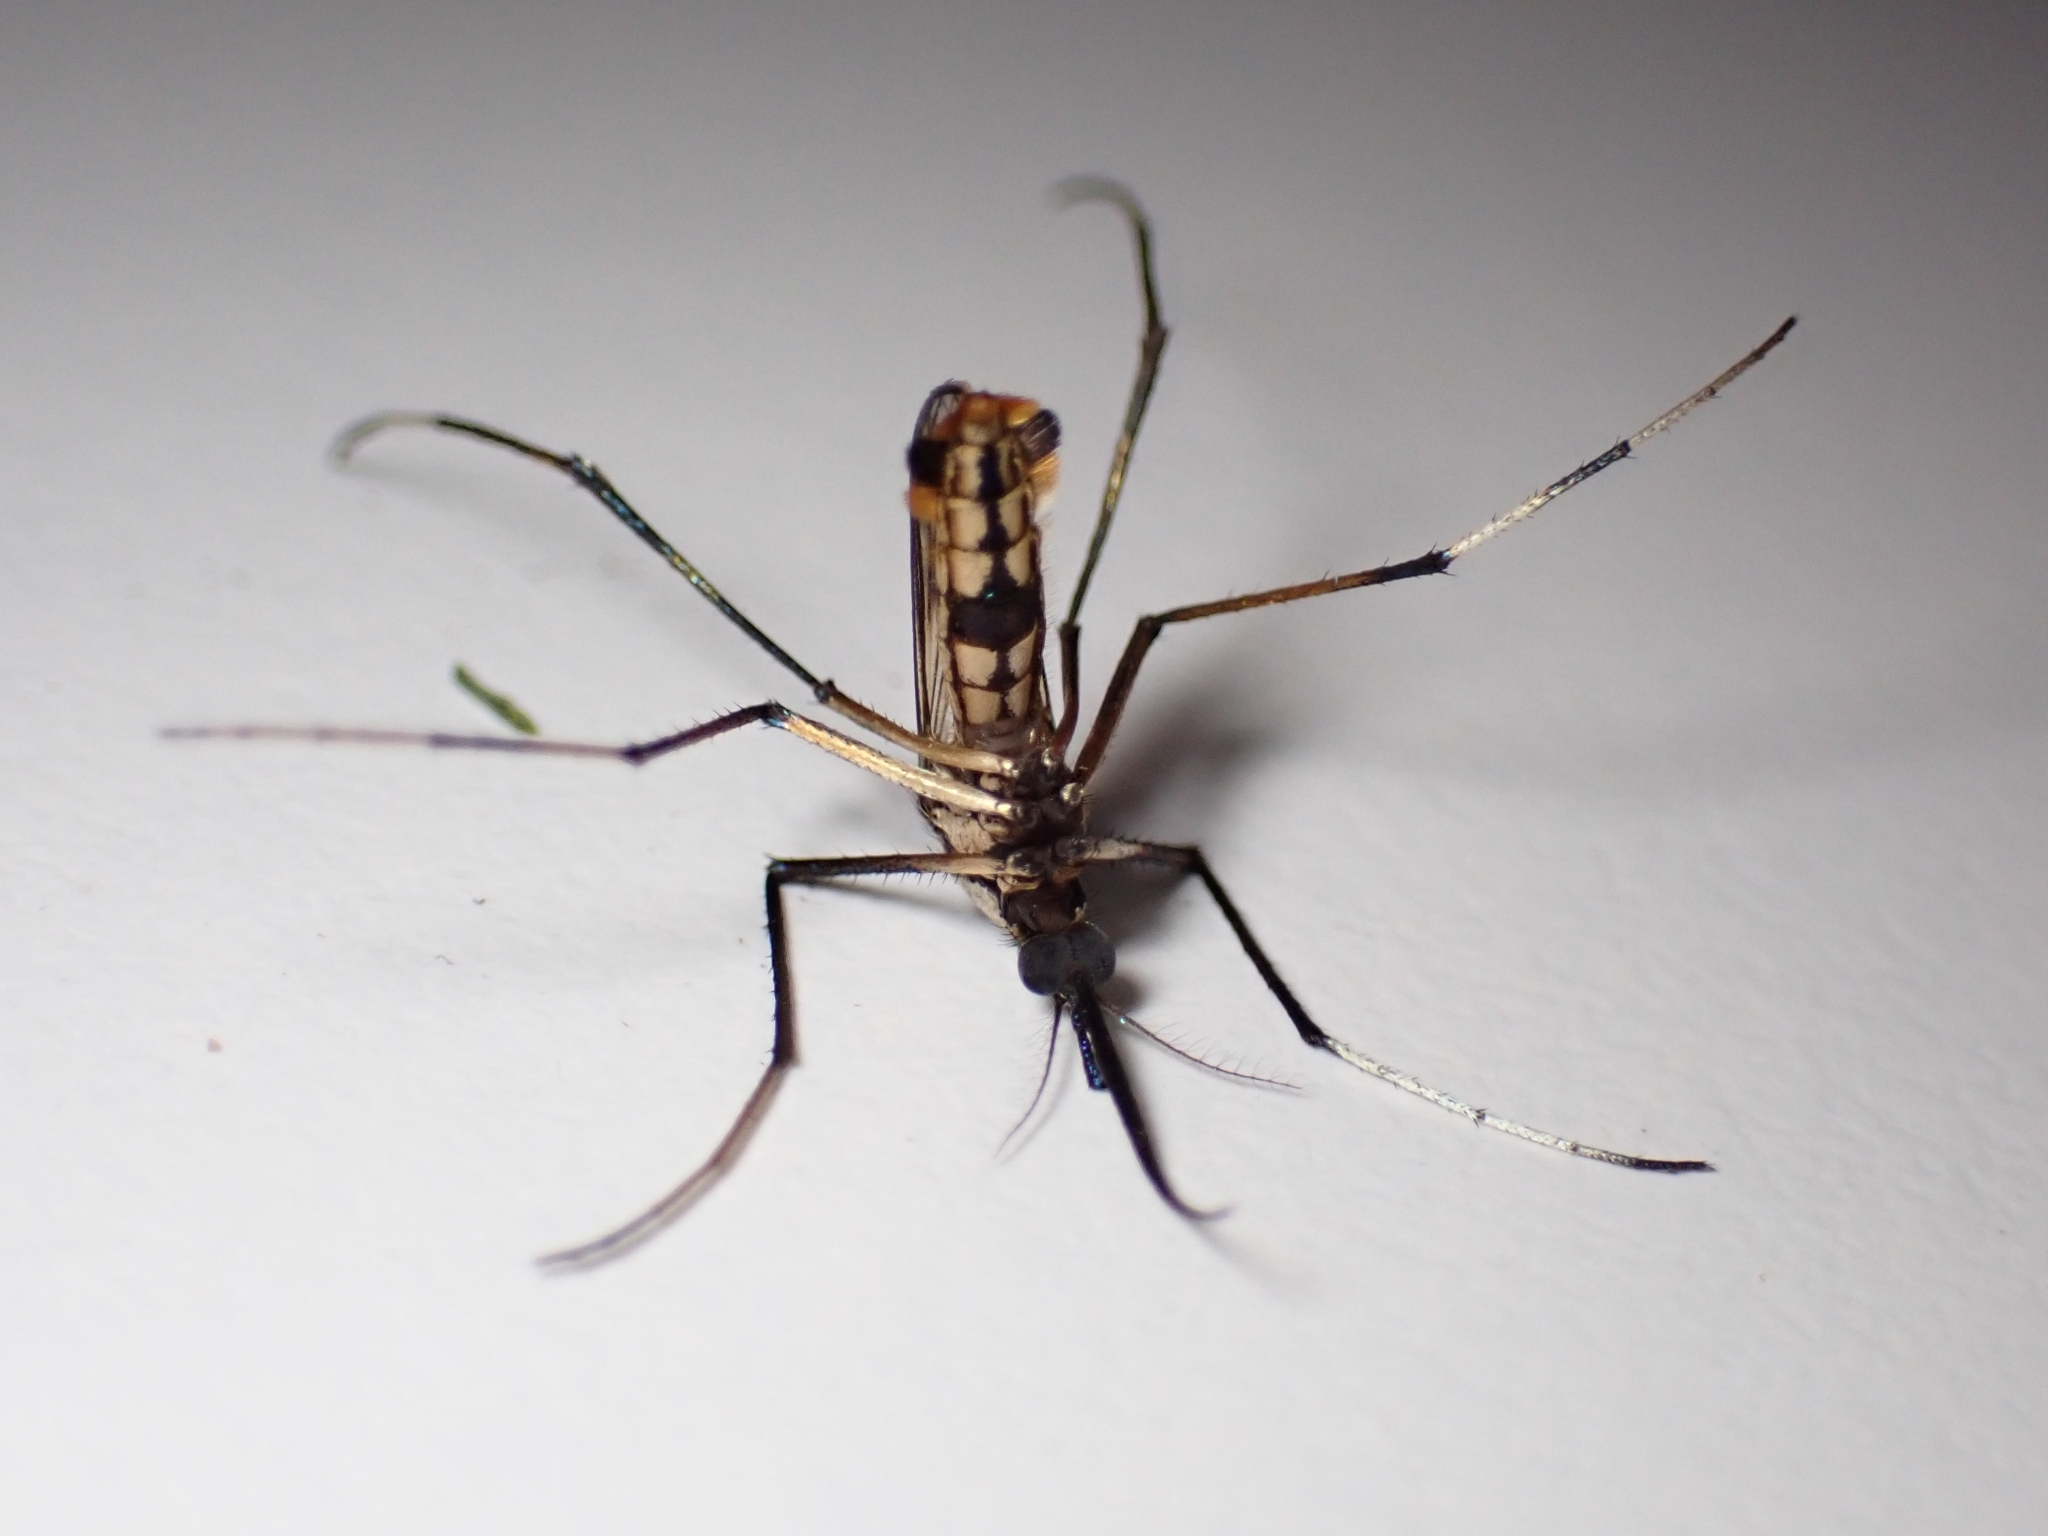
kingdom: Animalia
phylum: Arthropoda
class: Insecta
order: Diptera
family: Culicidae
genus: Toxorhynchites
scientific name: Toxorhynchites speciosus
